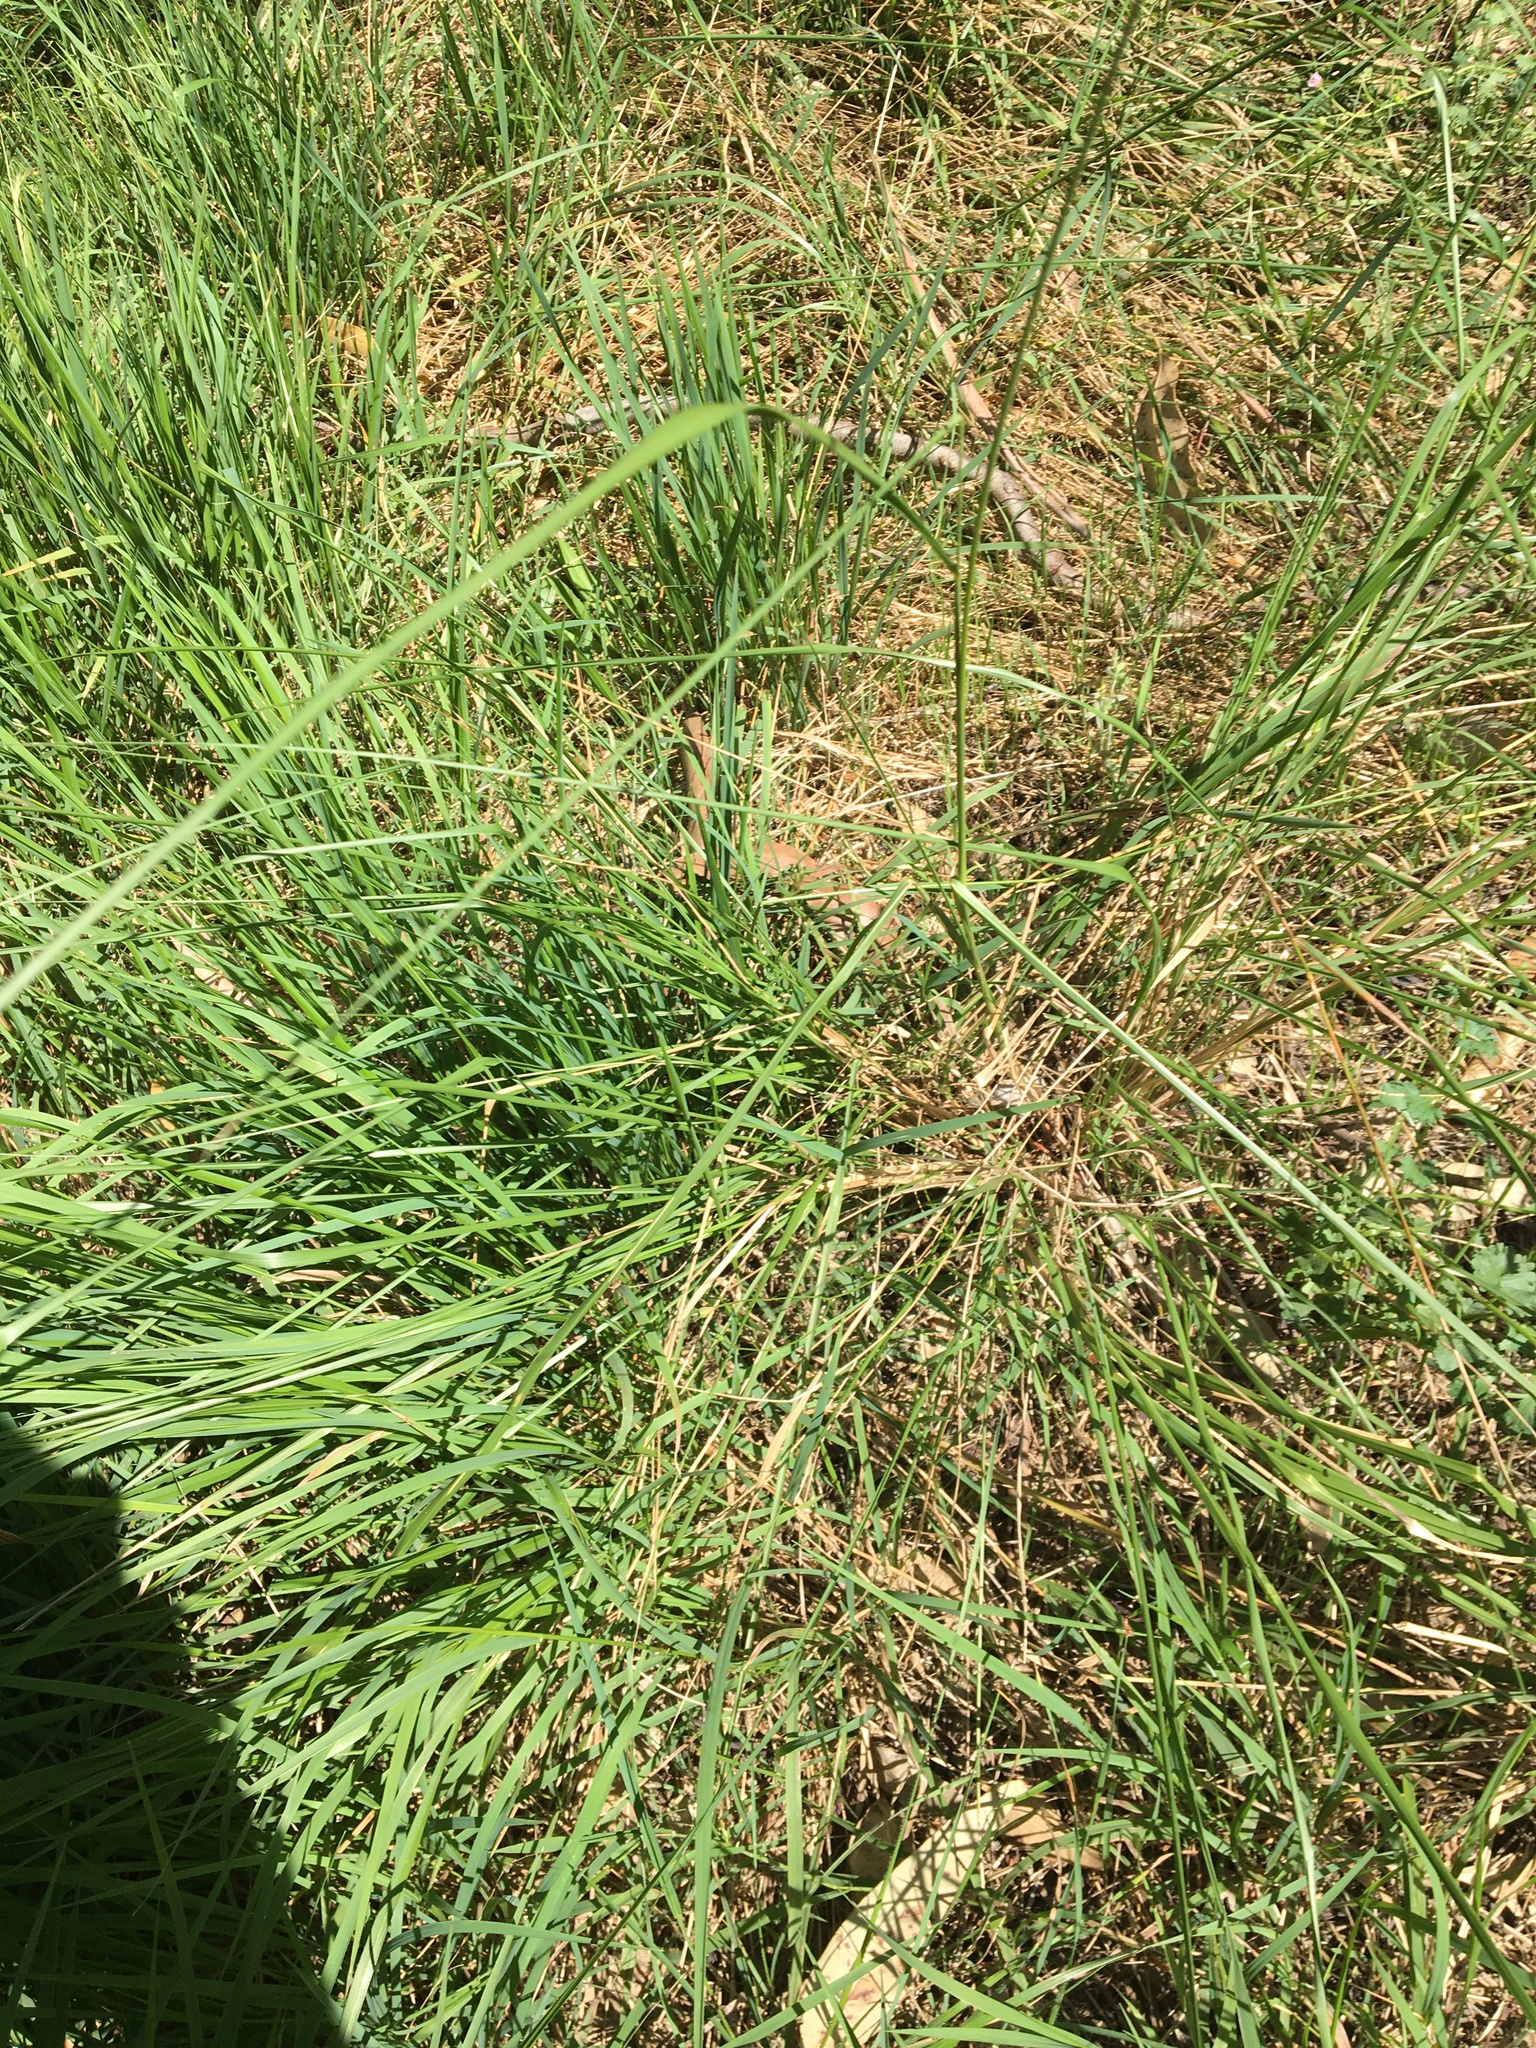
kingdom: Plantae
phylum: Tracheophyta
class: Liliopsida
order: Poales
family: Poaceae
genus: Eragrostis
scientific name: Eragrostis curvula
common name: African love-grass
